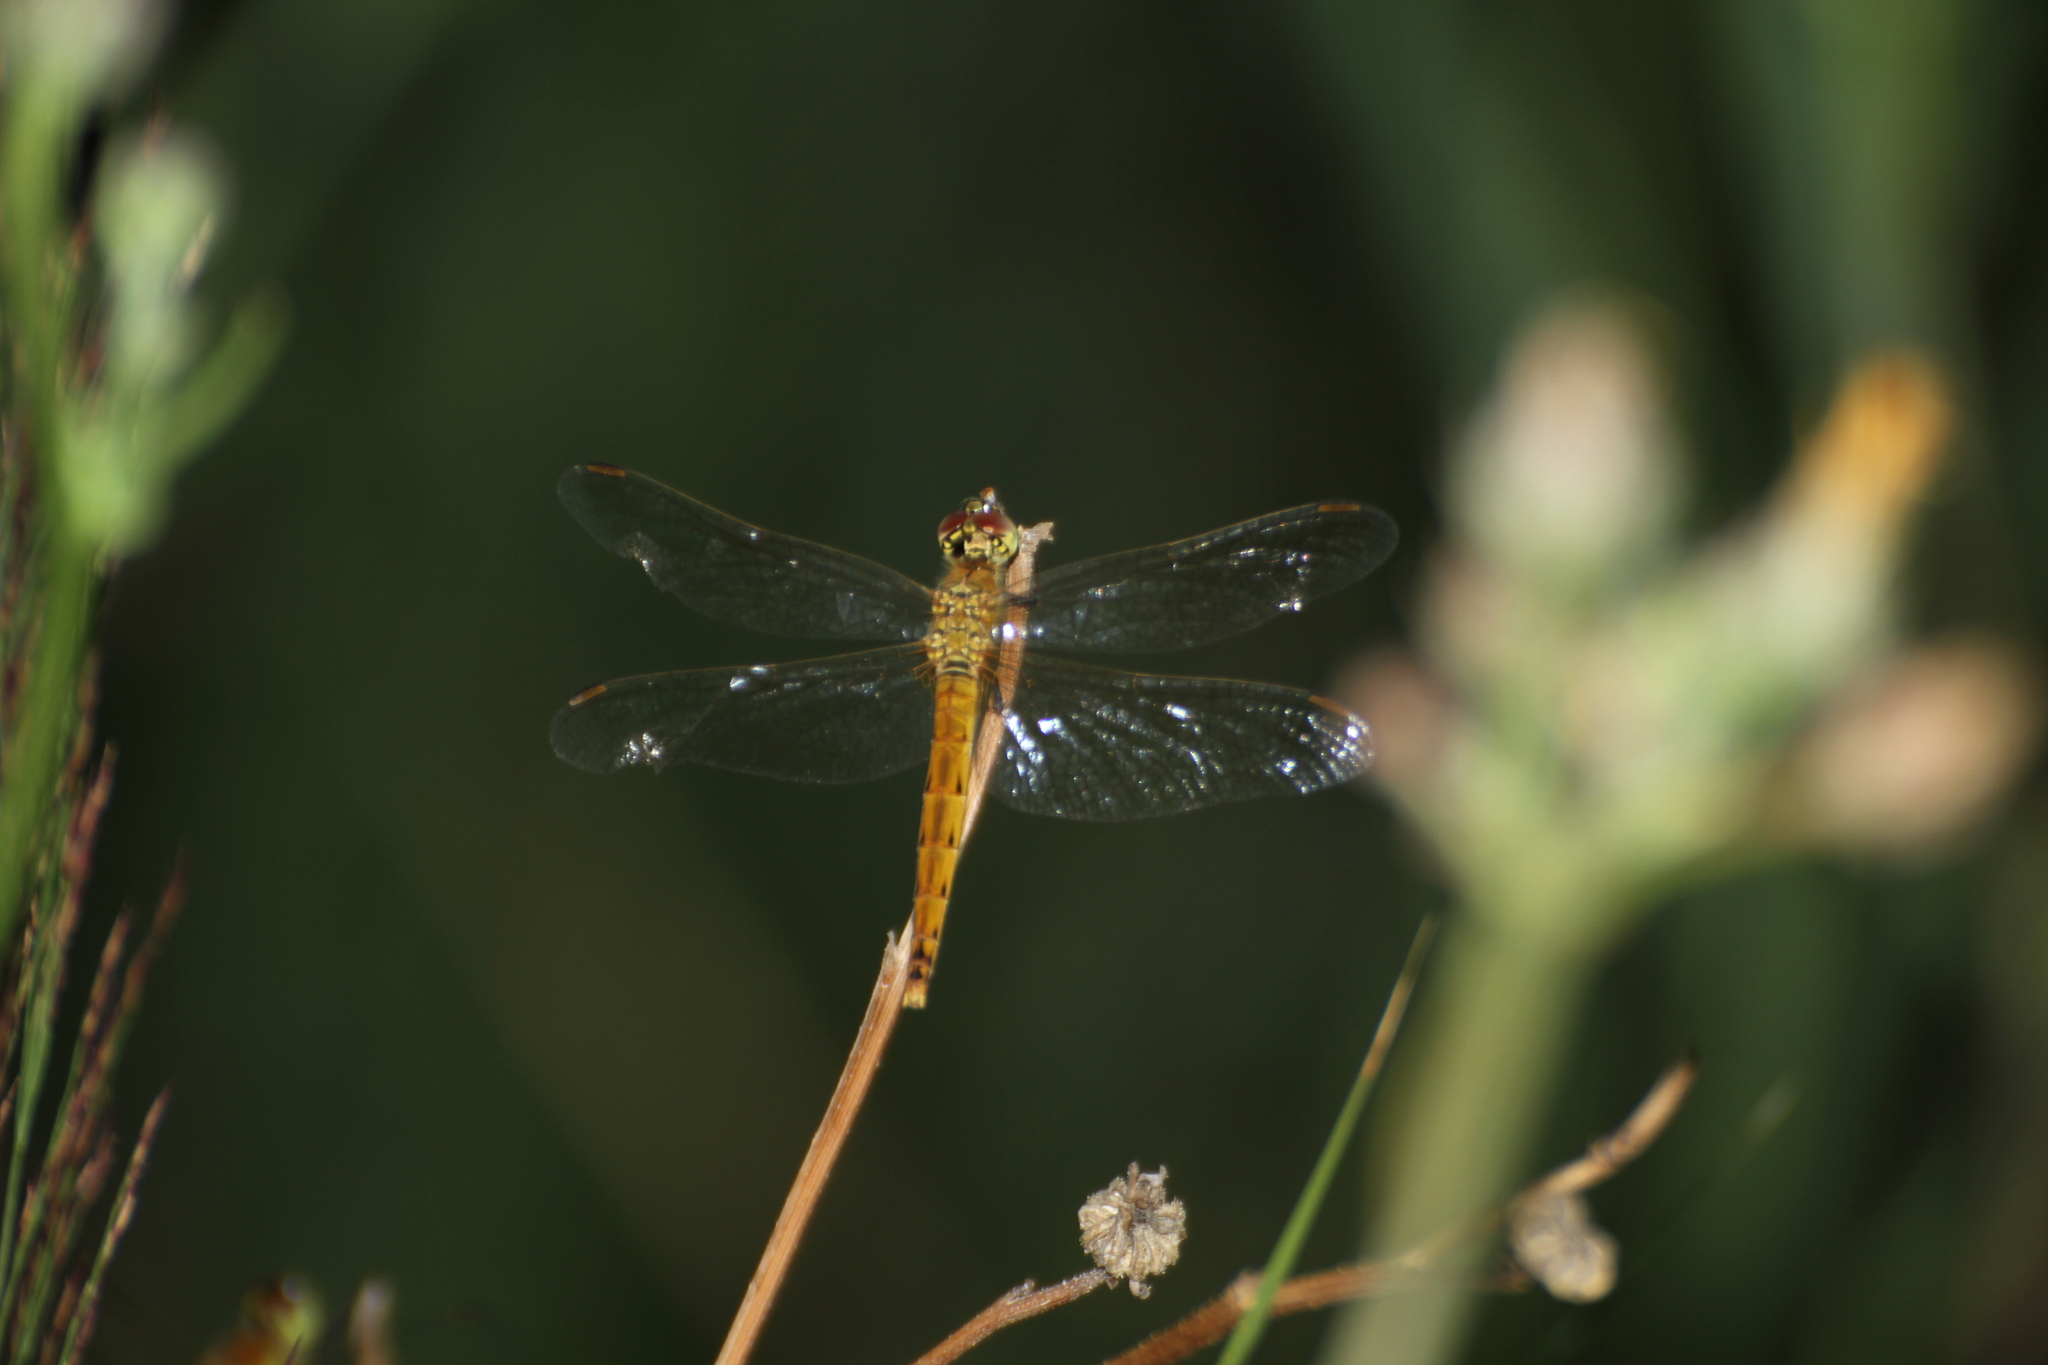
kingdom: Animalia
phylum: Arthropoda
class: Insecta
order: Odonata
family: Libellulidae
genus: Sympetrum
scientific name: Sympetrum depressiusculum
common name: Spotted darter
